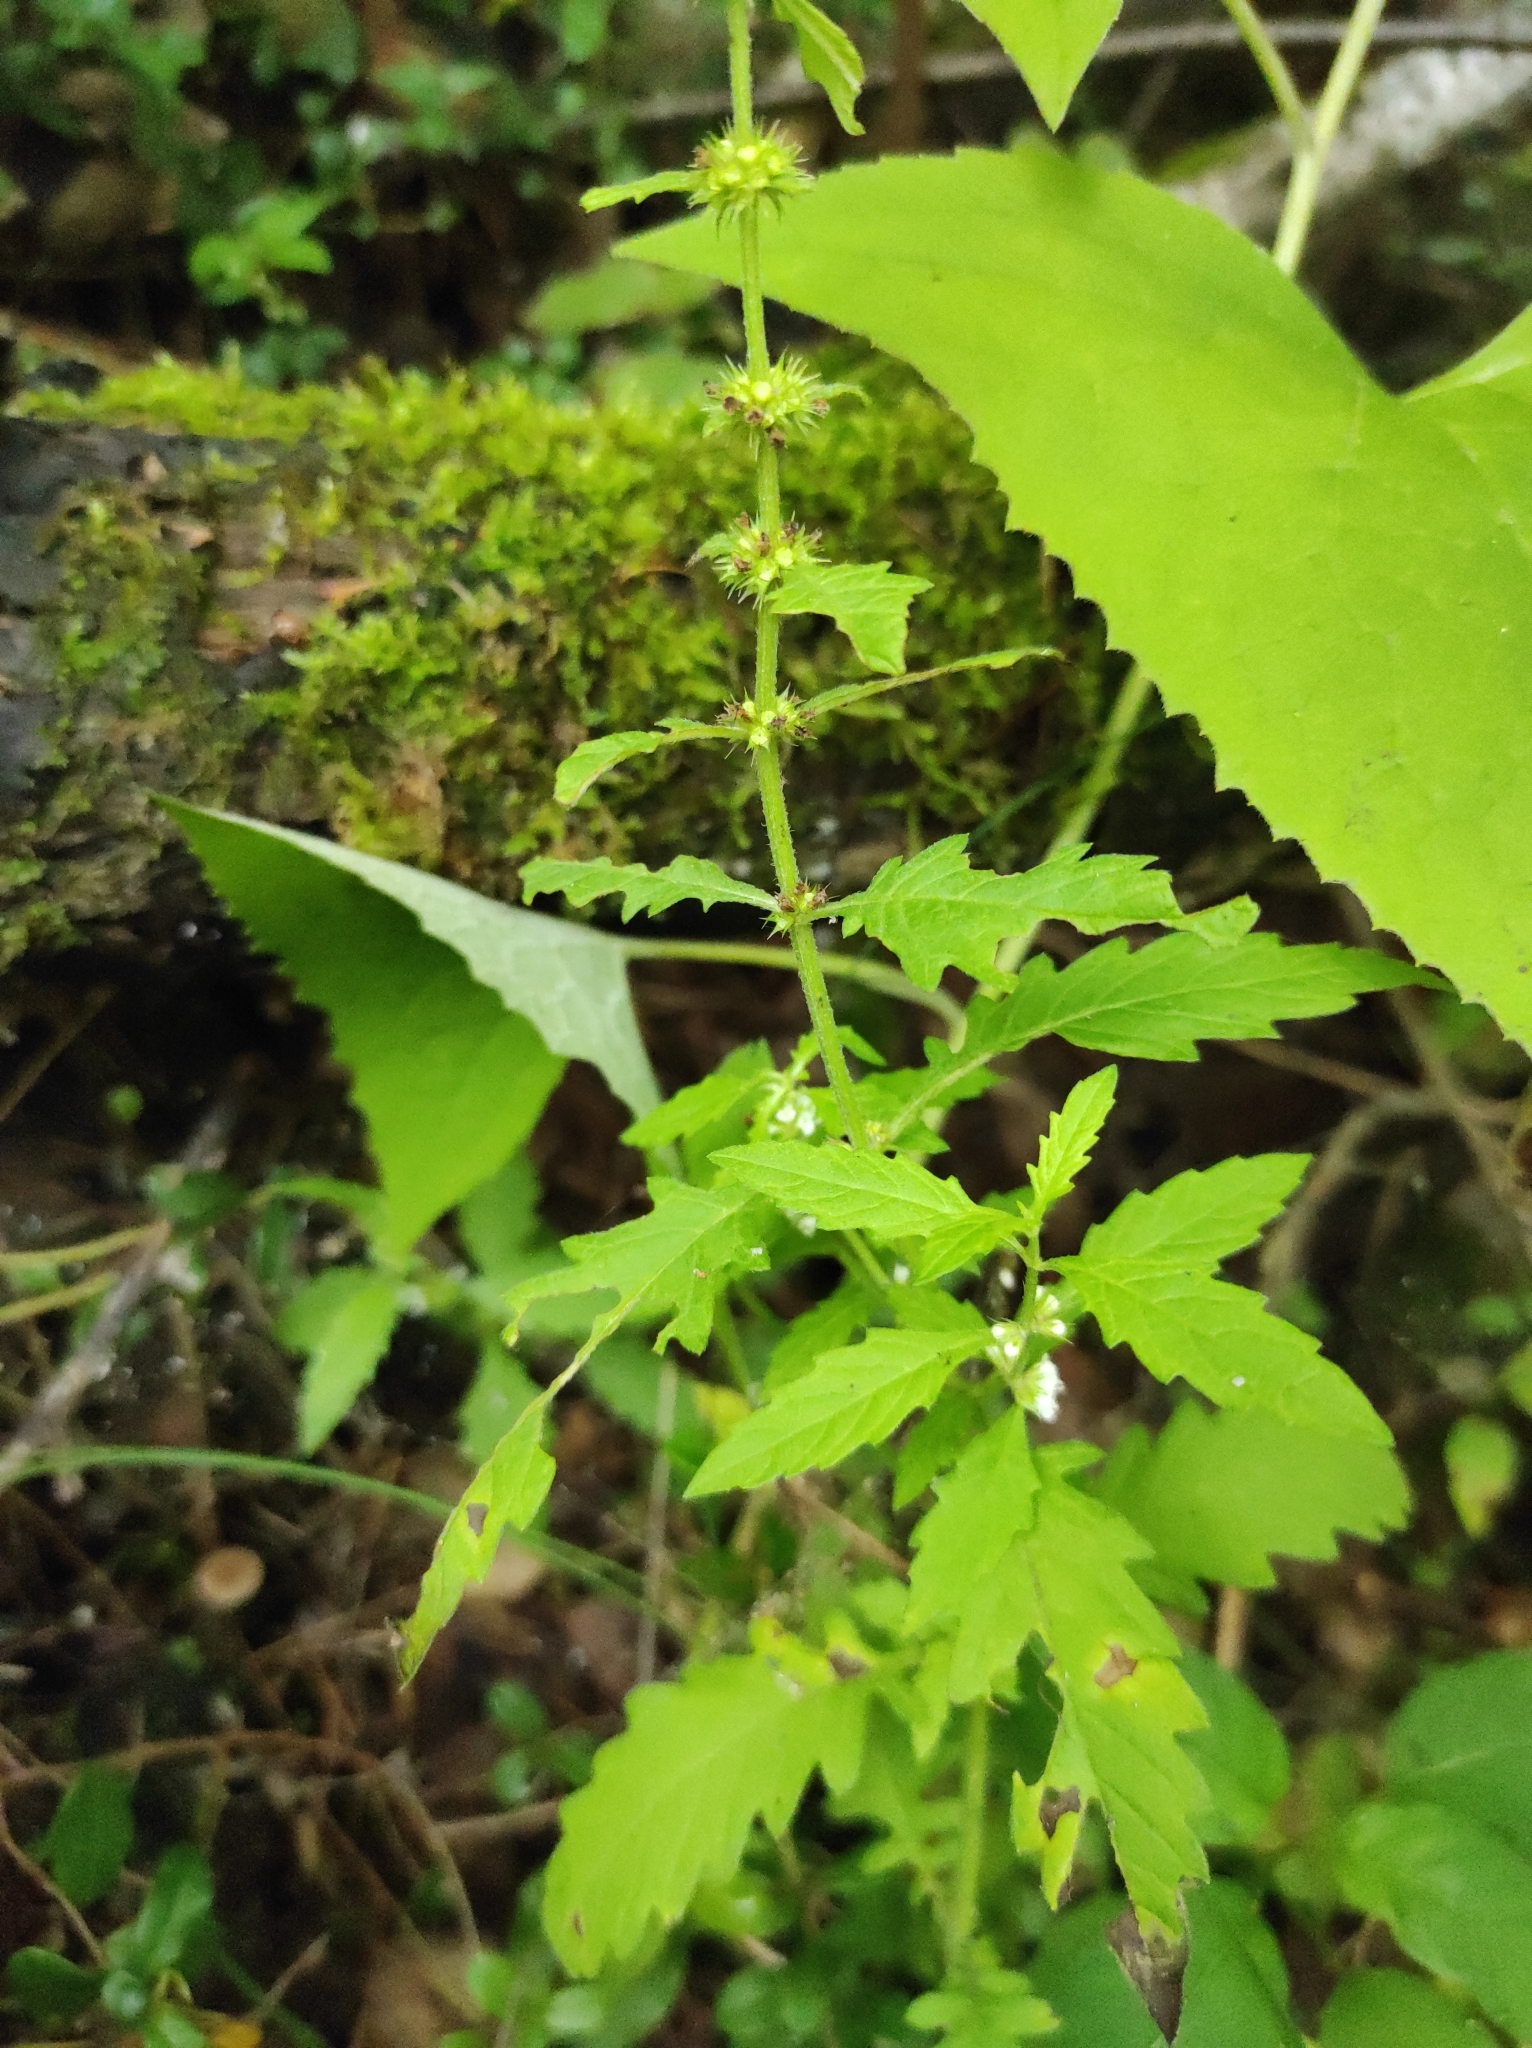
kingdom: Plantae
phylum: Tracheophyta
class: Magnoliopsida
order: Lamiales
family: Lamiaceae
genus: Lycopus
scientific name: Lycopus europaeus
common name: European bugleweed
